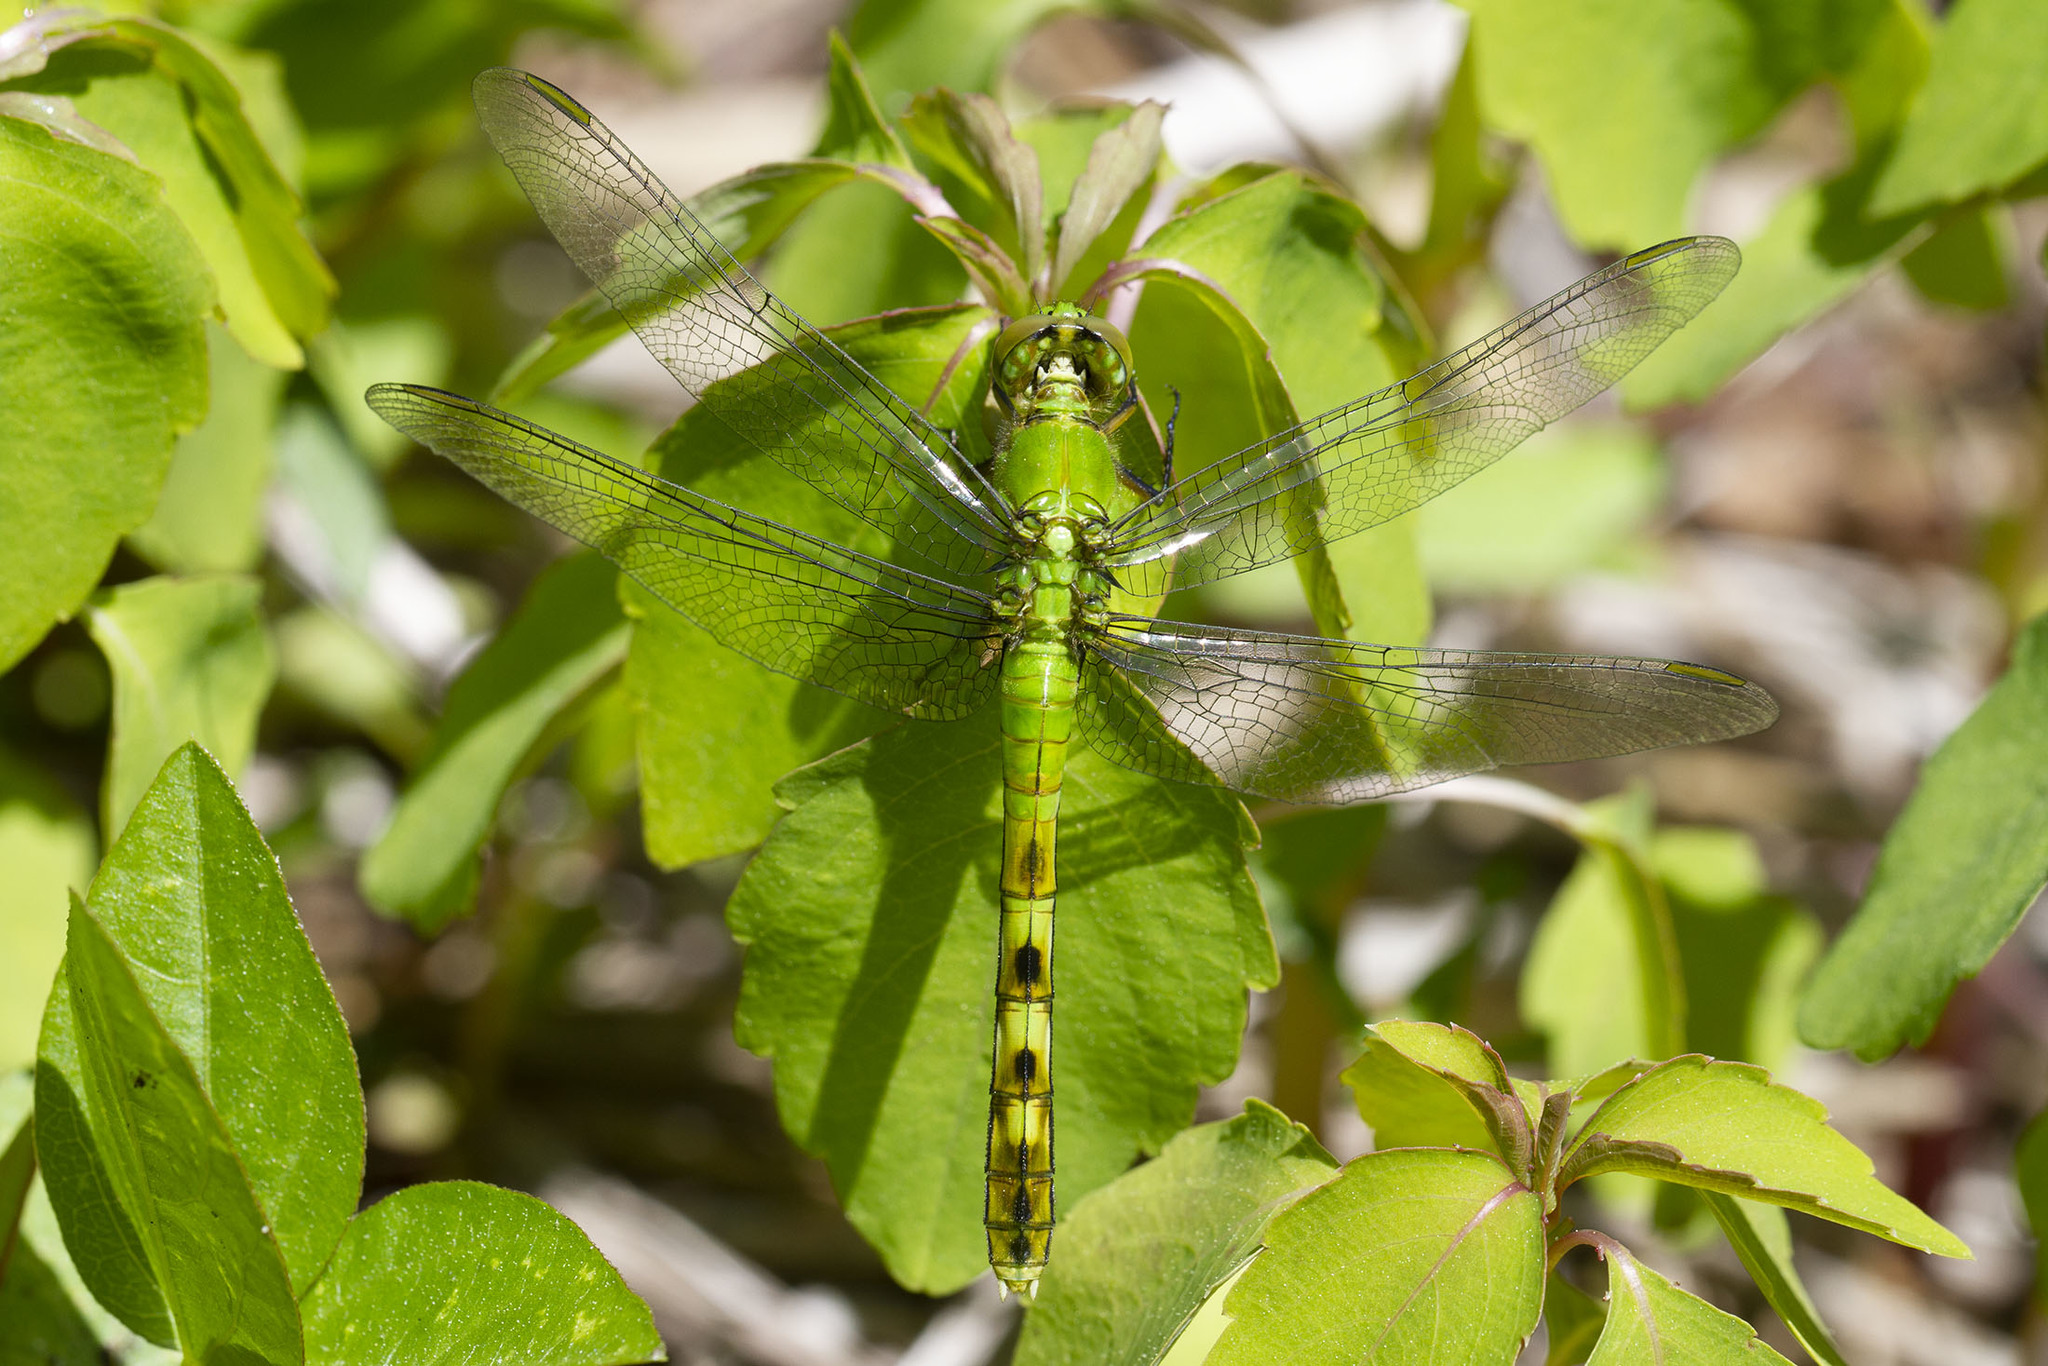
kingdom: Animalia
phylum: Arthropoda
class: Insecta
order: Odonata
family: Libellulidae
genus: Erythemis
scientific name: Erythemis simplicicollis
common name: Eastern pondhawk
